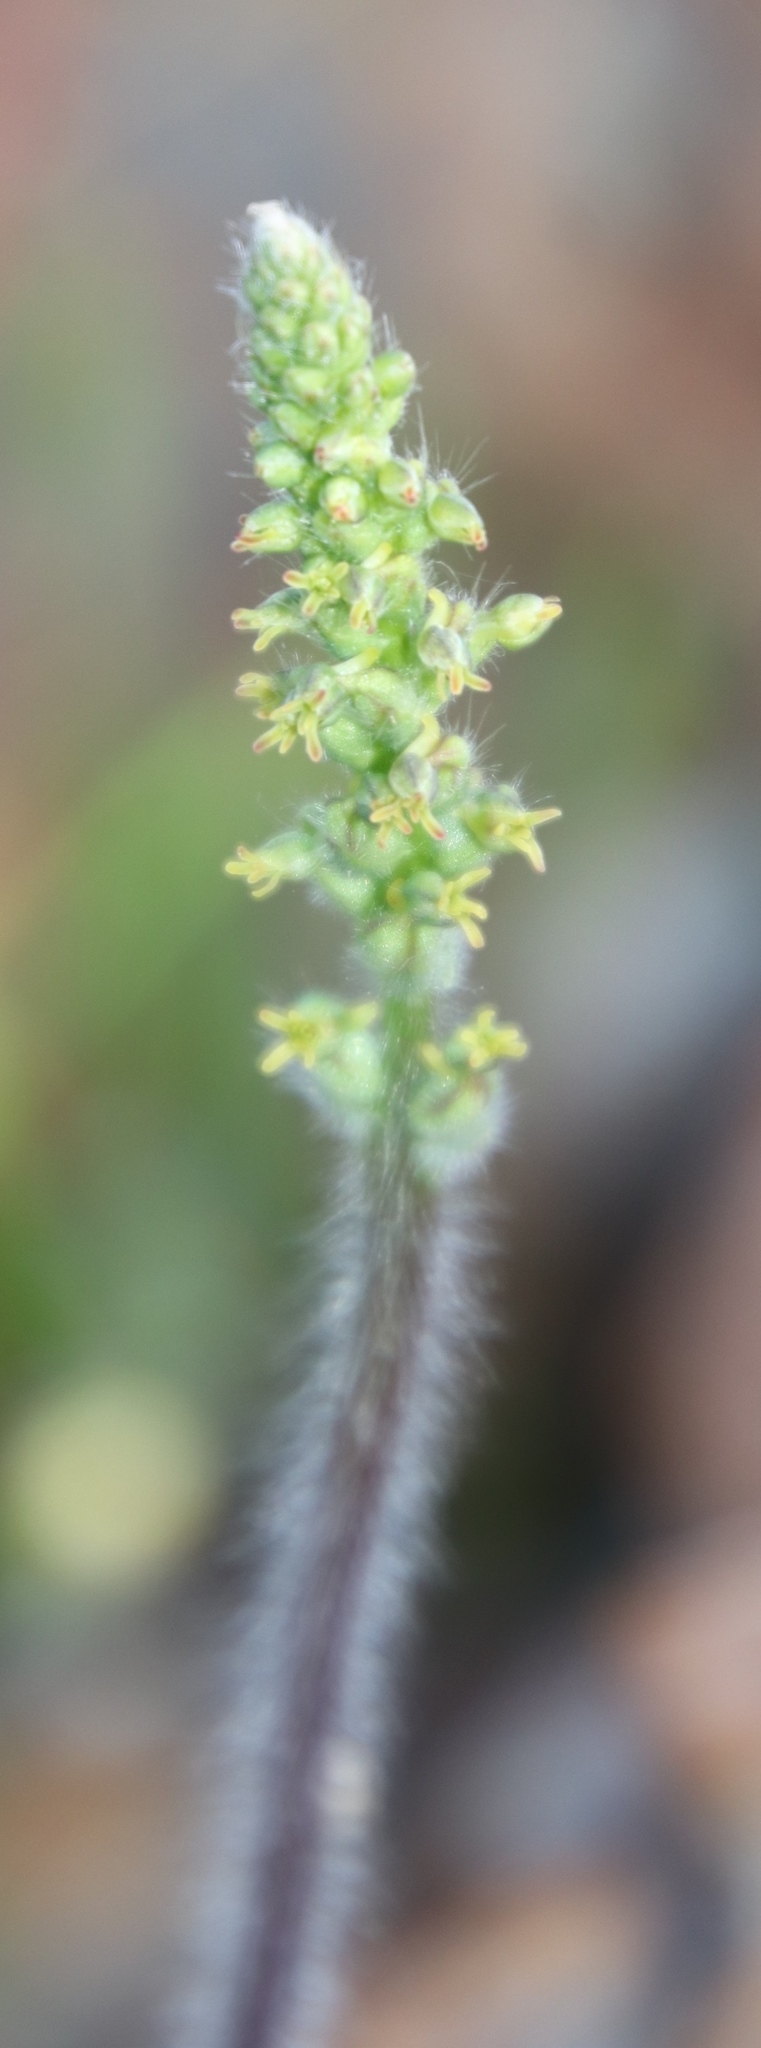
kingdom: Plantae
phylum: Tracheophyta
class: Liliopsida
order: Asparagales
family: Orchidaceae
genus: Holothrix
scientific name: Holothrix villosa
